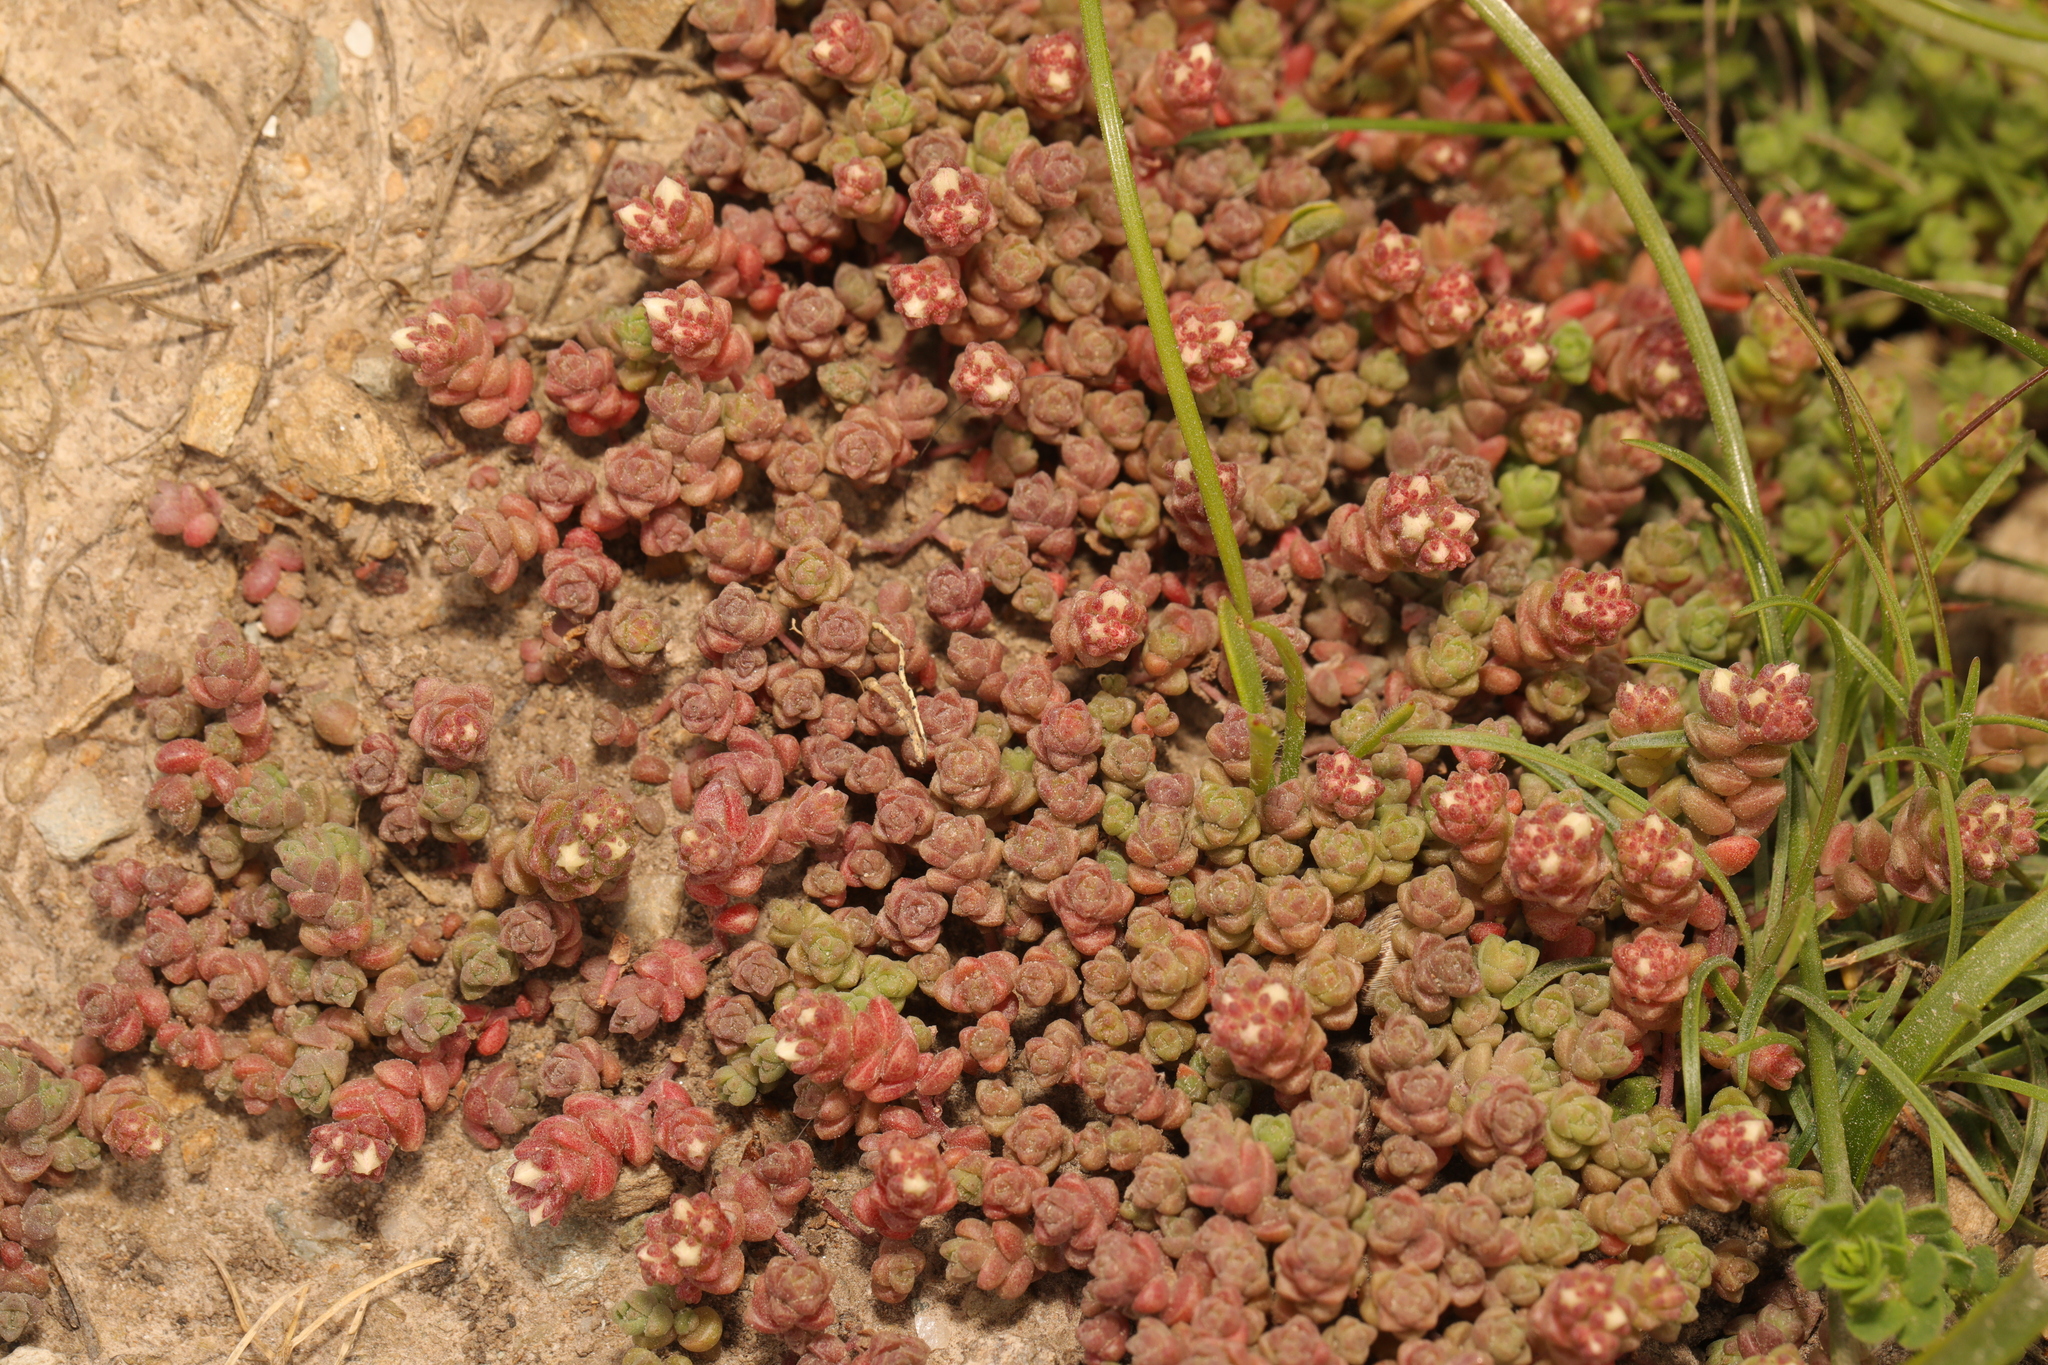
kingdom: Plantae
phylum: Tracheophyta
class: Magnoliopsida
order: Saxifragales
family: Crassulaceae
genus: Sedum
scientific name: Sedum anglicum
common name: English stonecrop
